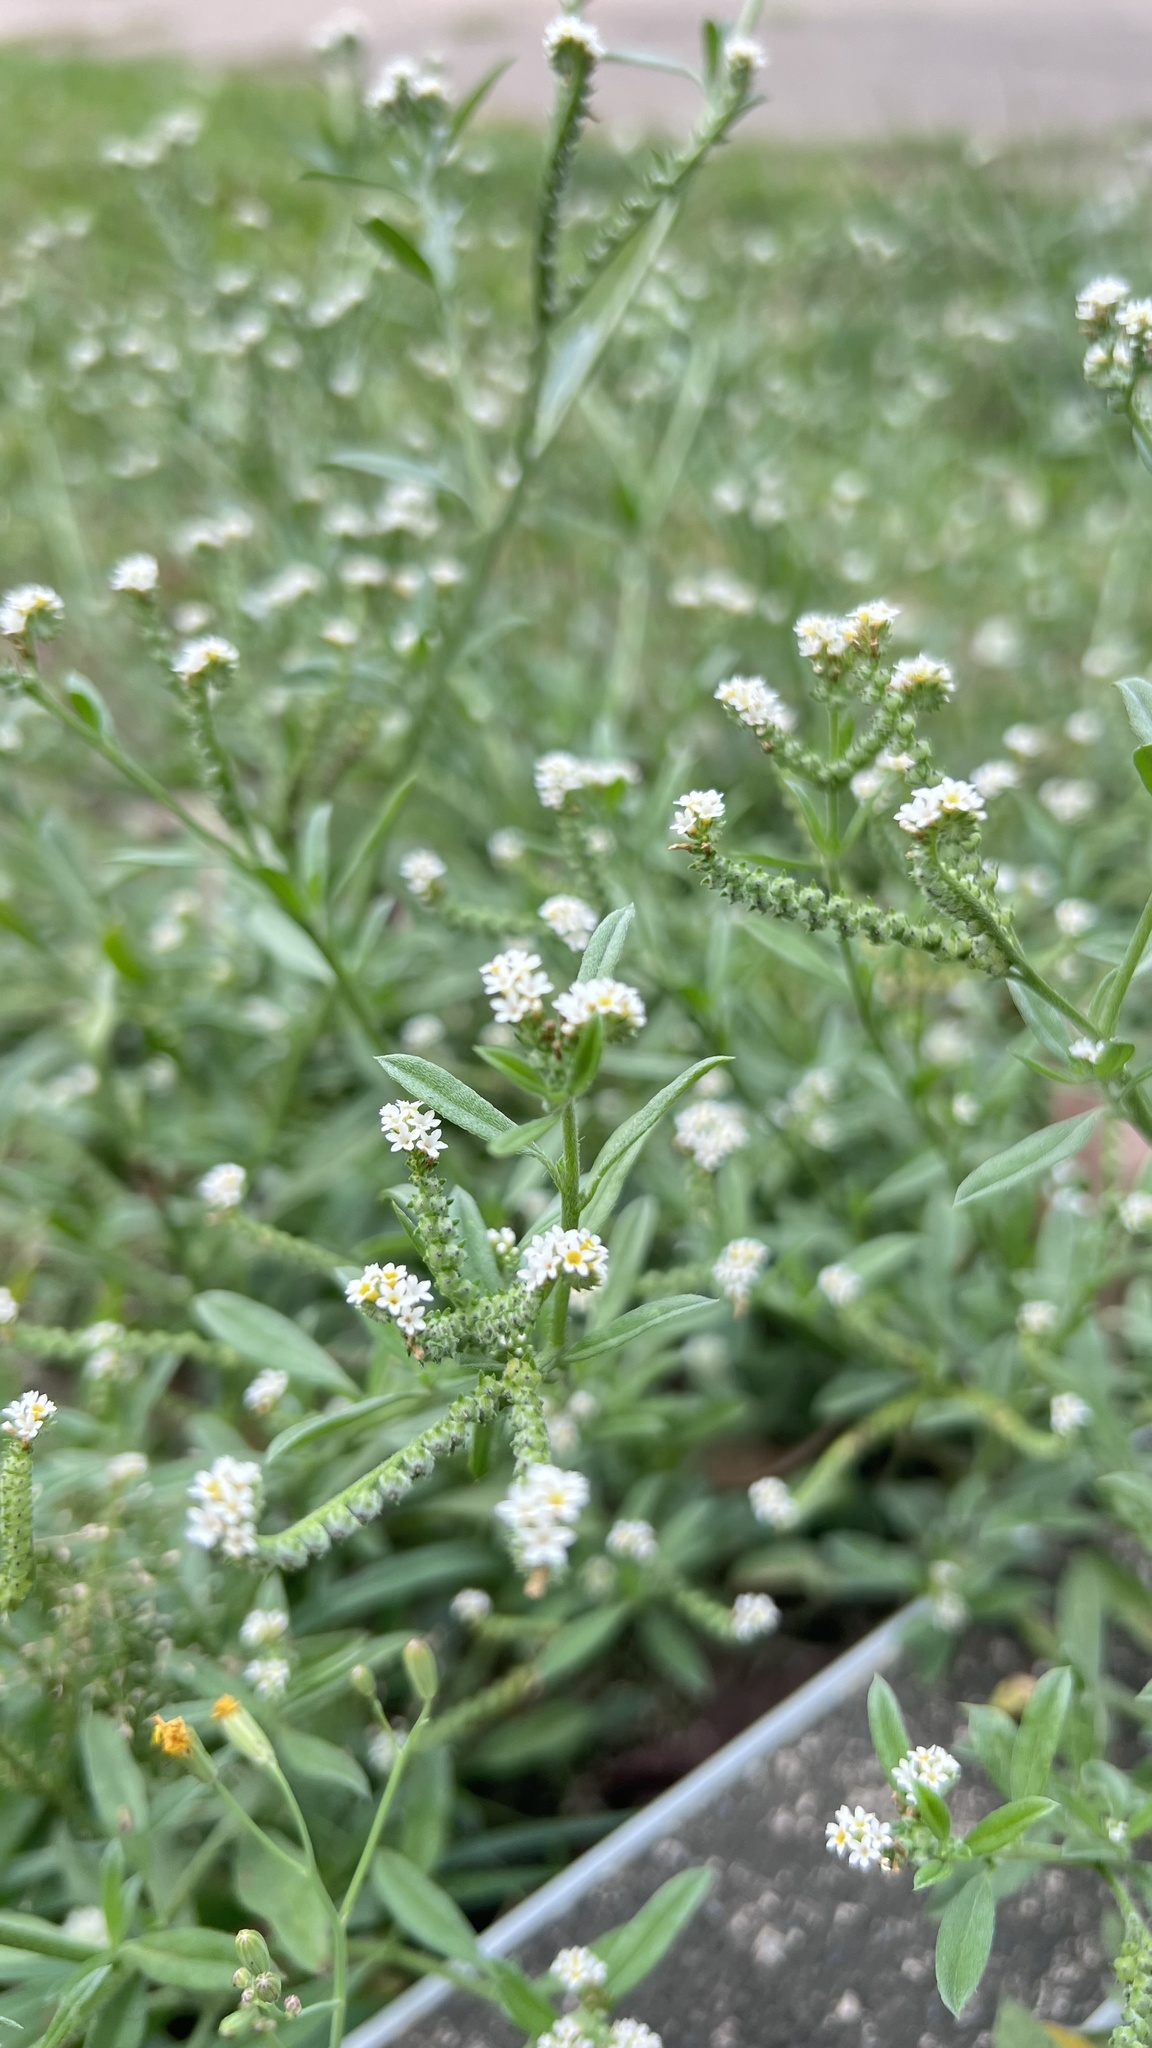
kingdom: Plantae
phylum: Tracheophyta
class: Magnoliopsida
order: Boraginales
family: Heliotropiaceae
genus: Euploca
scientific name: Euploca procumbens
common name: Fourspike heliotrope
